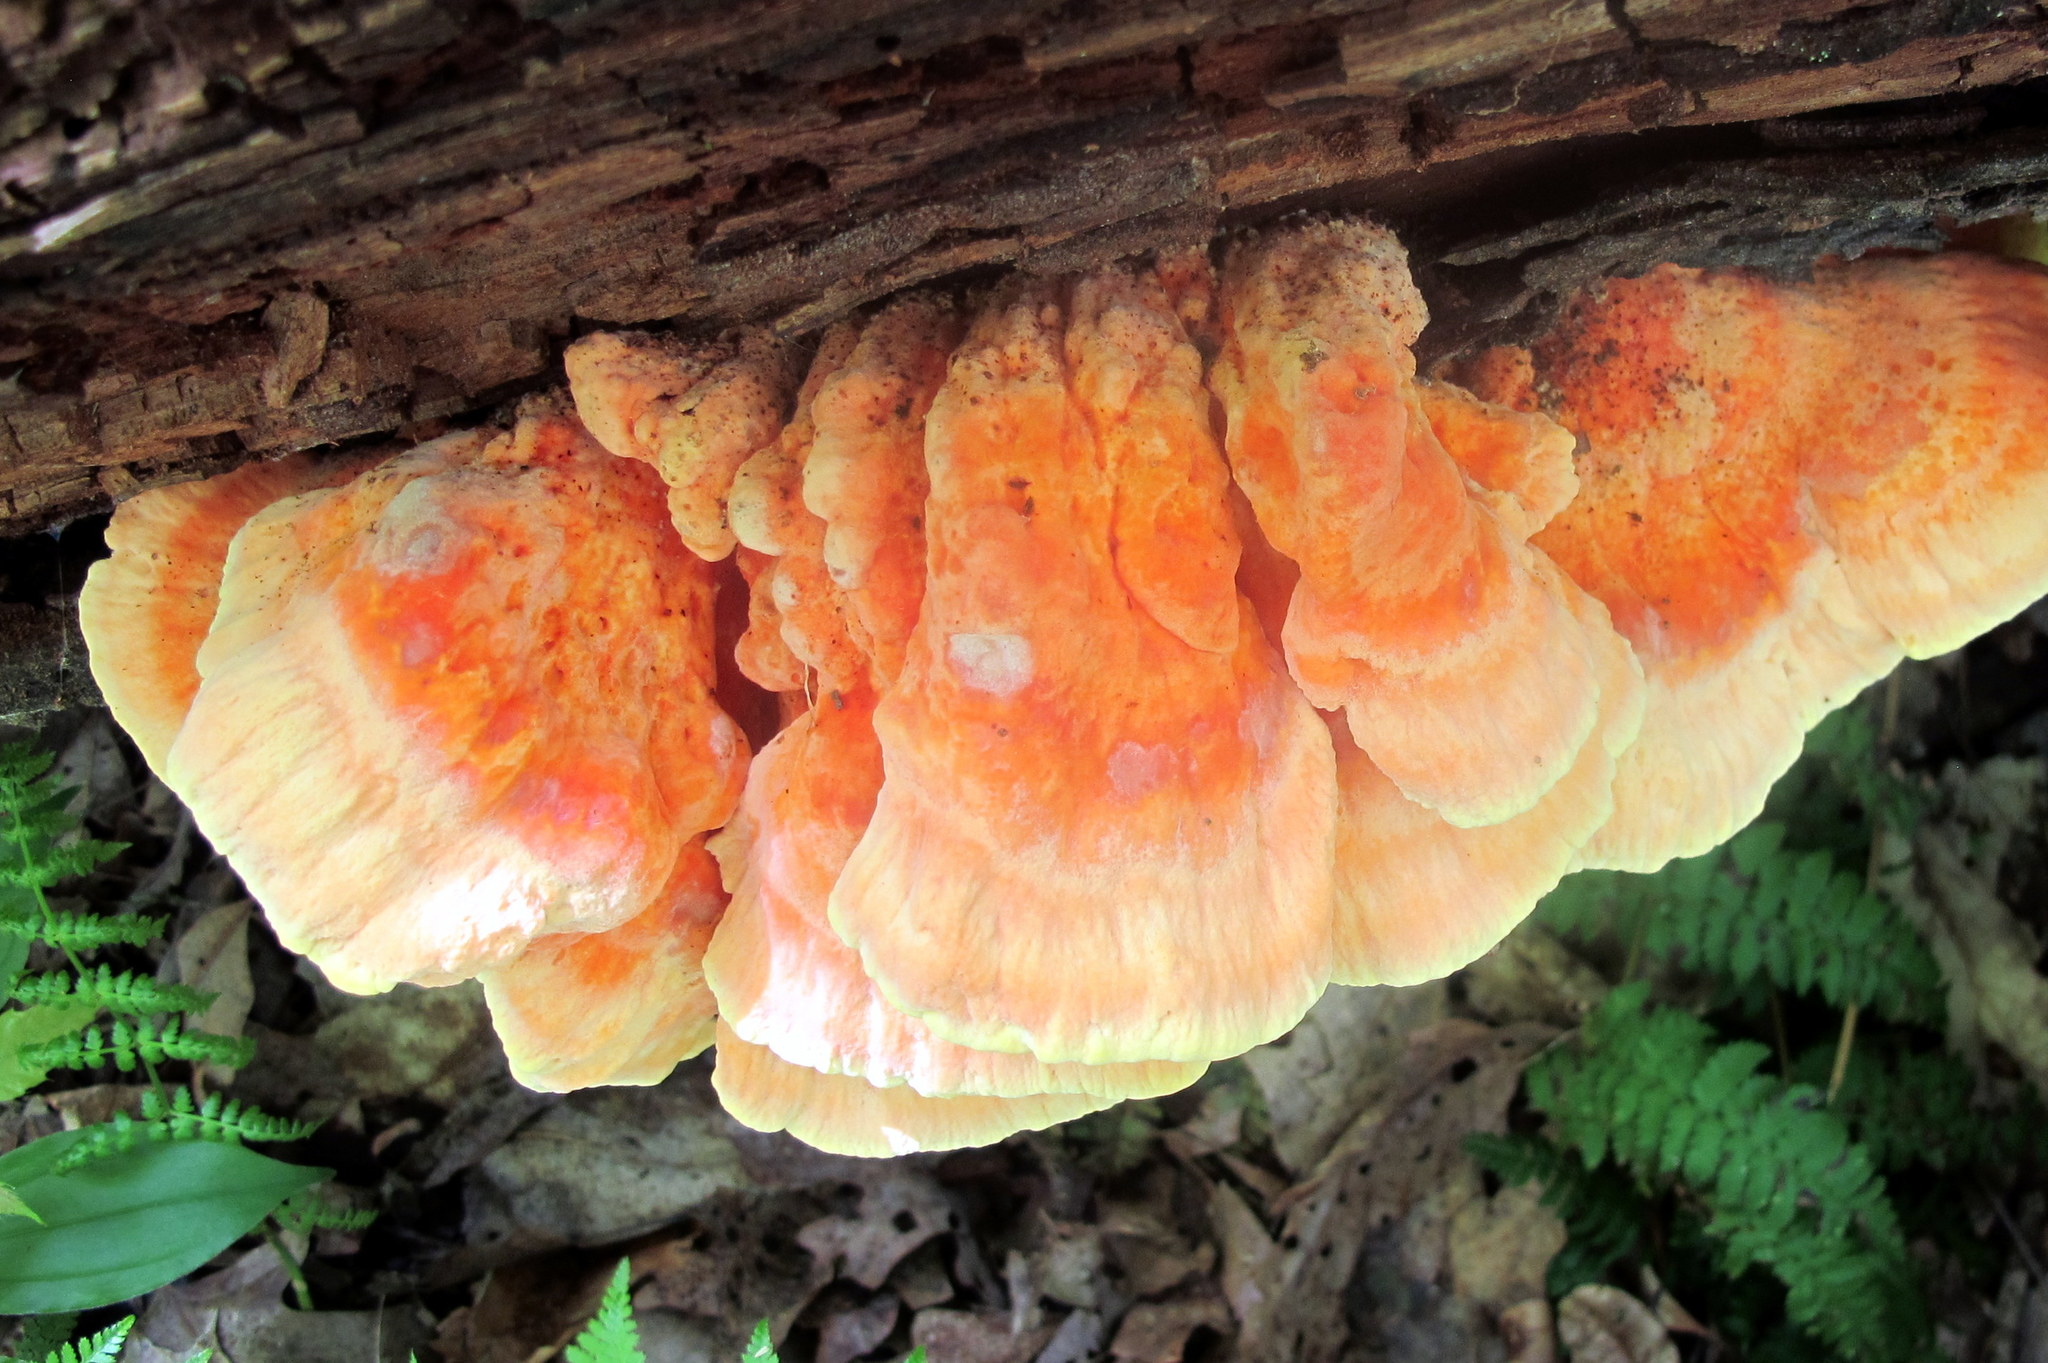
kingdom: Fungi
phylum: Basidiomycota
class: Agaricomycetes
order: Polyporales
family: Laetiporaceae
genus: Laetiporus
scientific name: Laetiporus sulphureus
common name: Chicken of the woods
